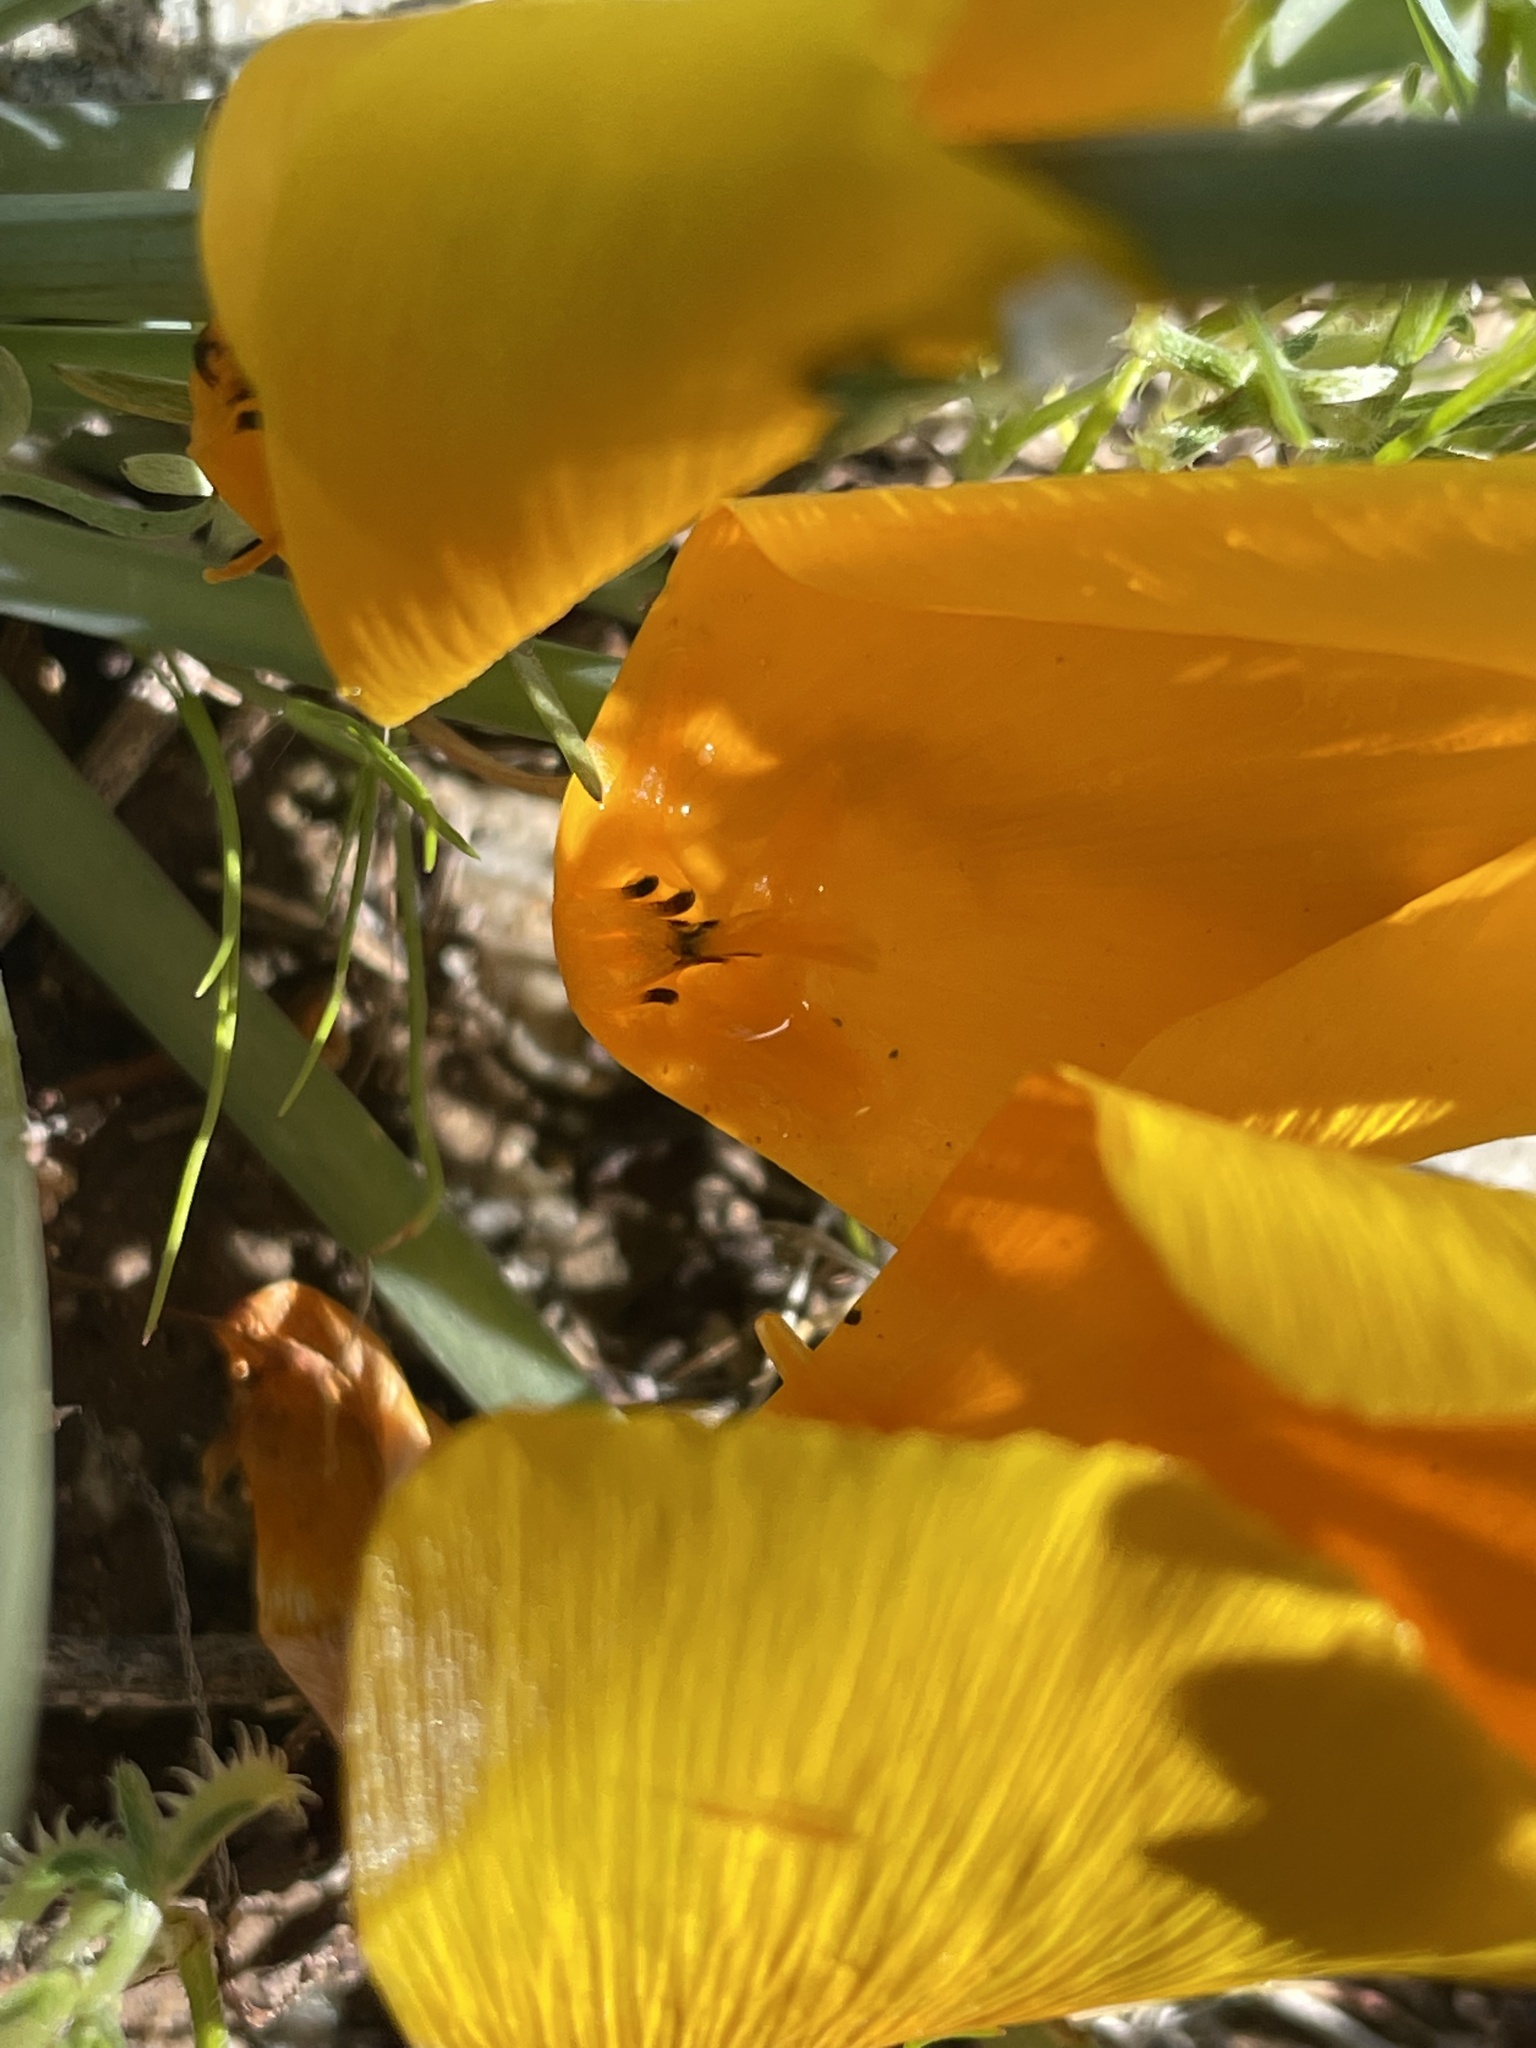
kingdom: Plantae
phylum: Tracheophyta
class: Magnoliopsida
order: Ranunculales
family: Papaveraceae
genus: Eschscholzia
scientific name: Eschscholzia californica
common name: California poppy
